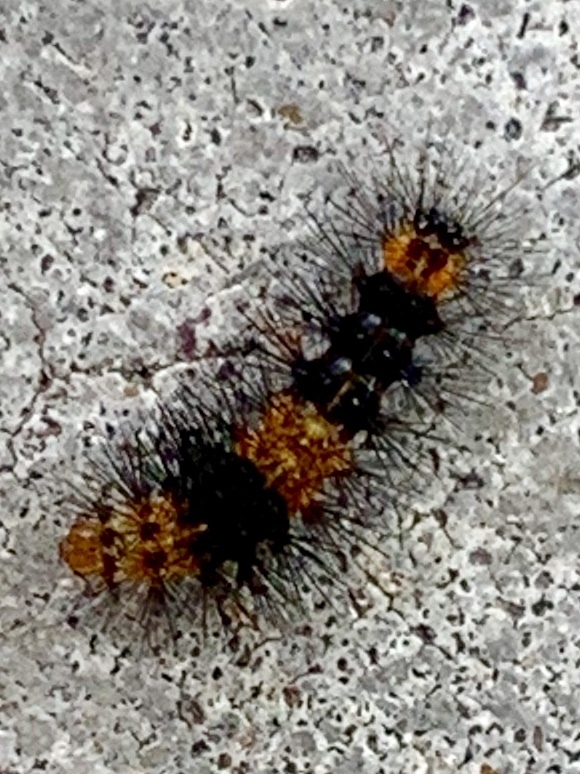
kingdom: Animalia
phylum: Arthropoda
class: Insecta
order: Lepidoptera
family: Erebidae
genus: Hypercompe
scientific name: Hypercompe scribonia
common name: Giant leopard moth
